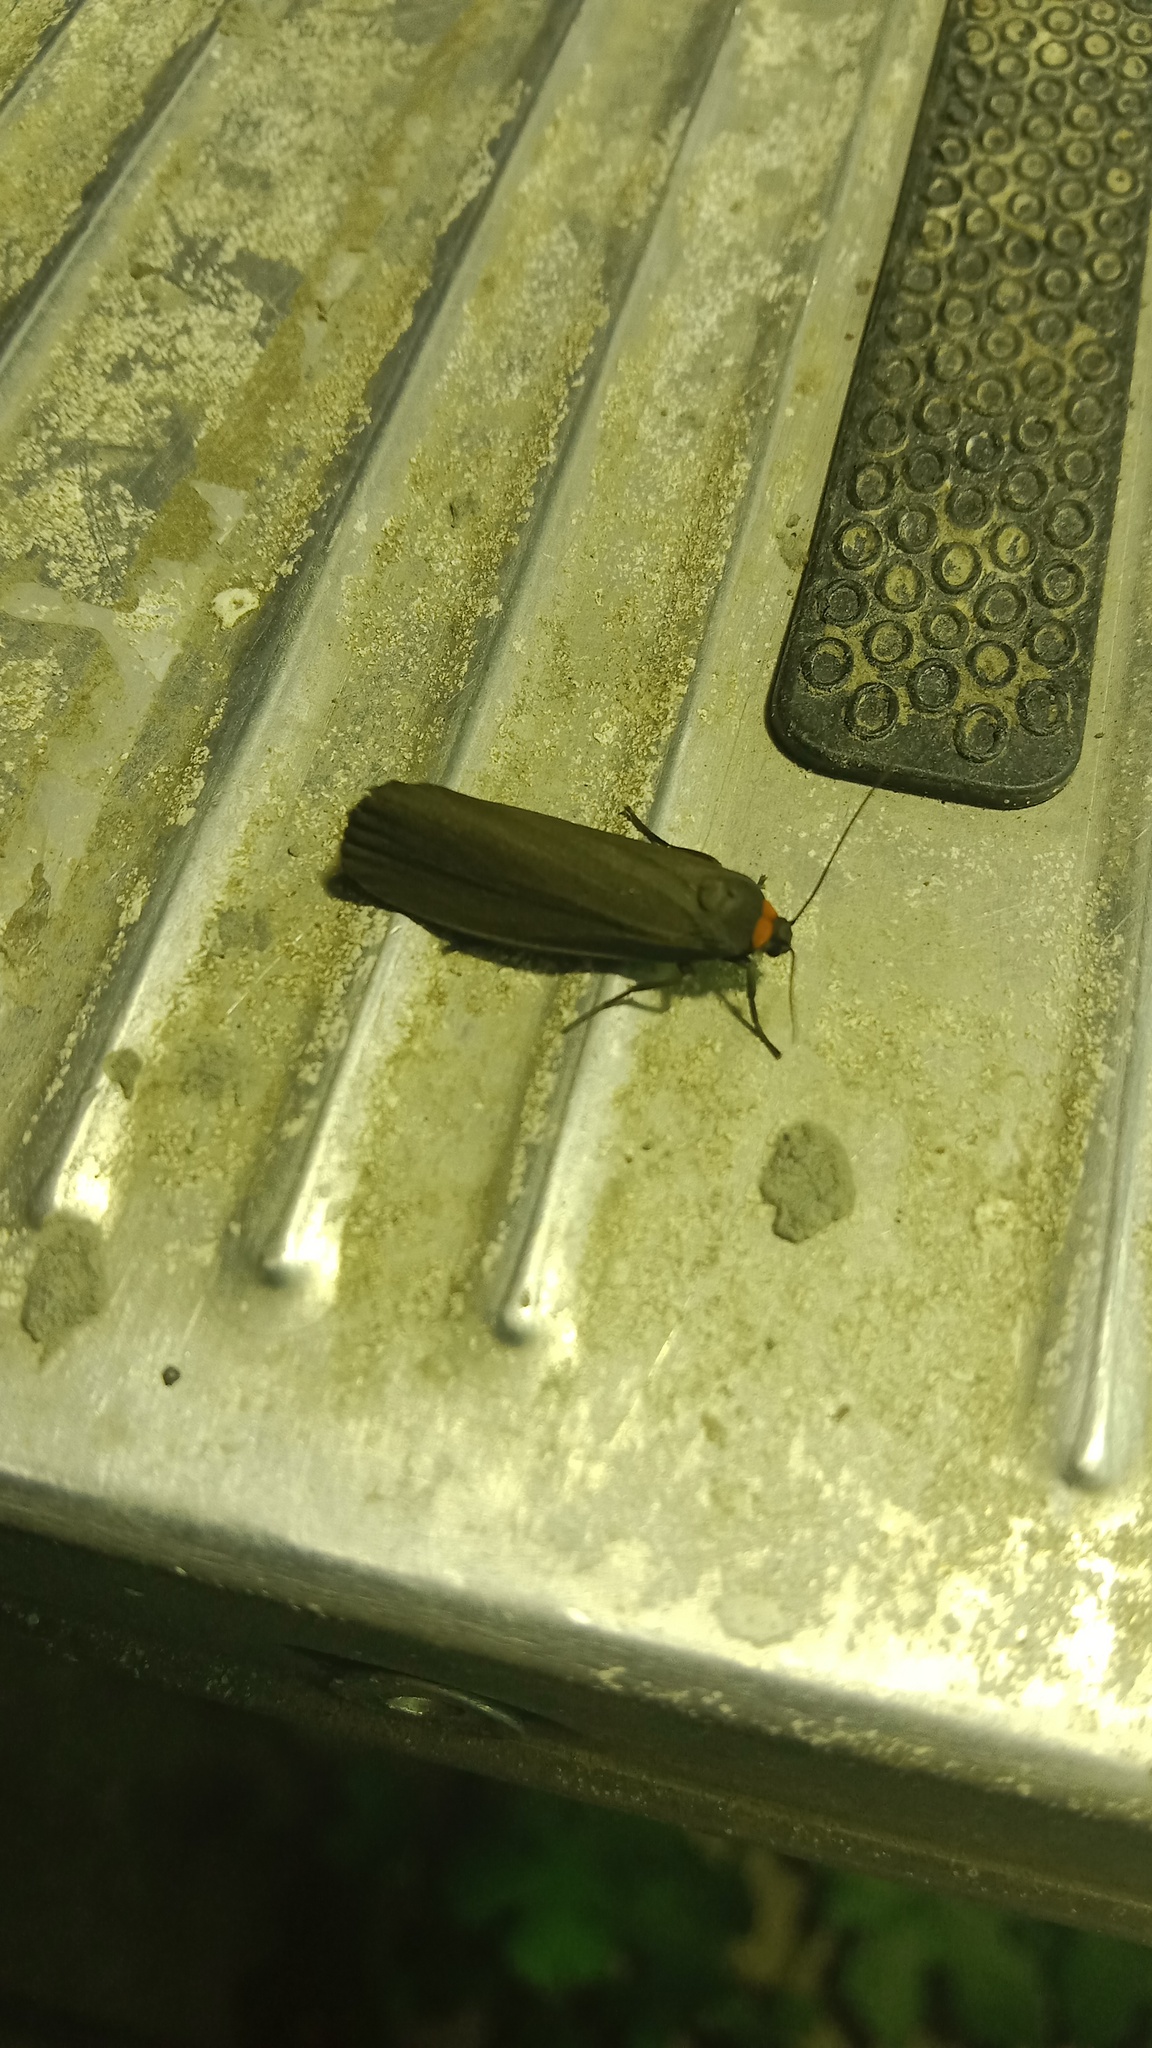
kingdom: Animalia
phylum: Arthropoda
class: Insecta
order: Lepidoptera
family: Erebidae
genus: Atolmis
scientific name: Atolmis rubricollis
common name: Red-necked footman
